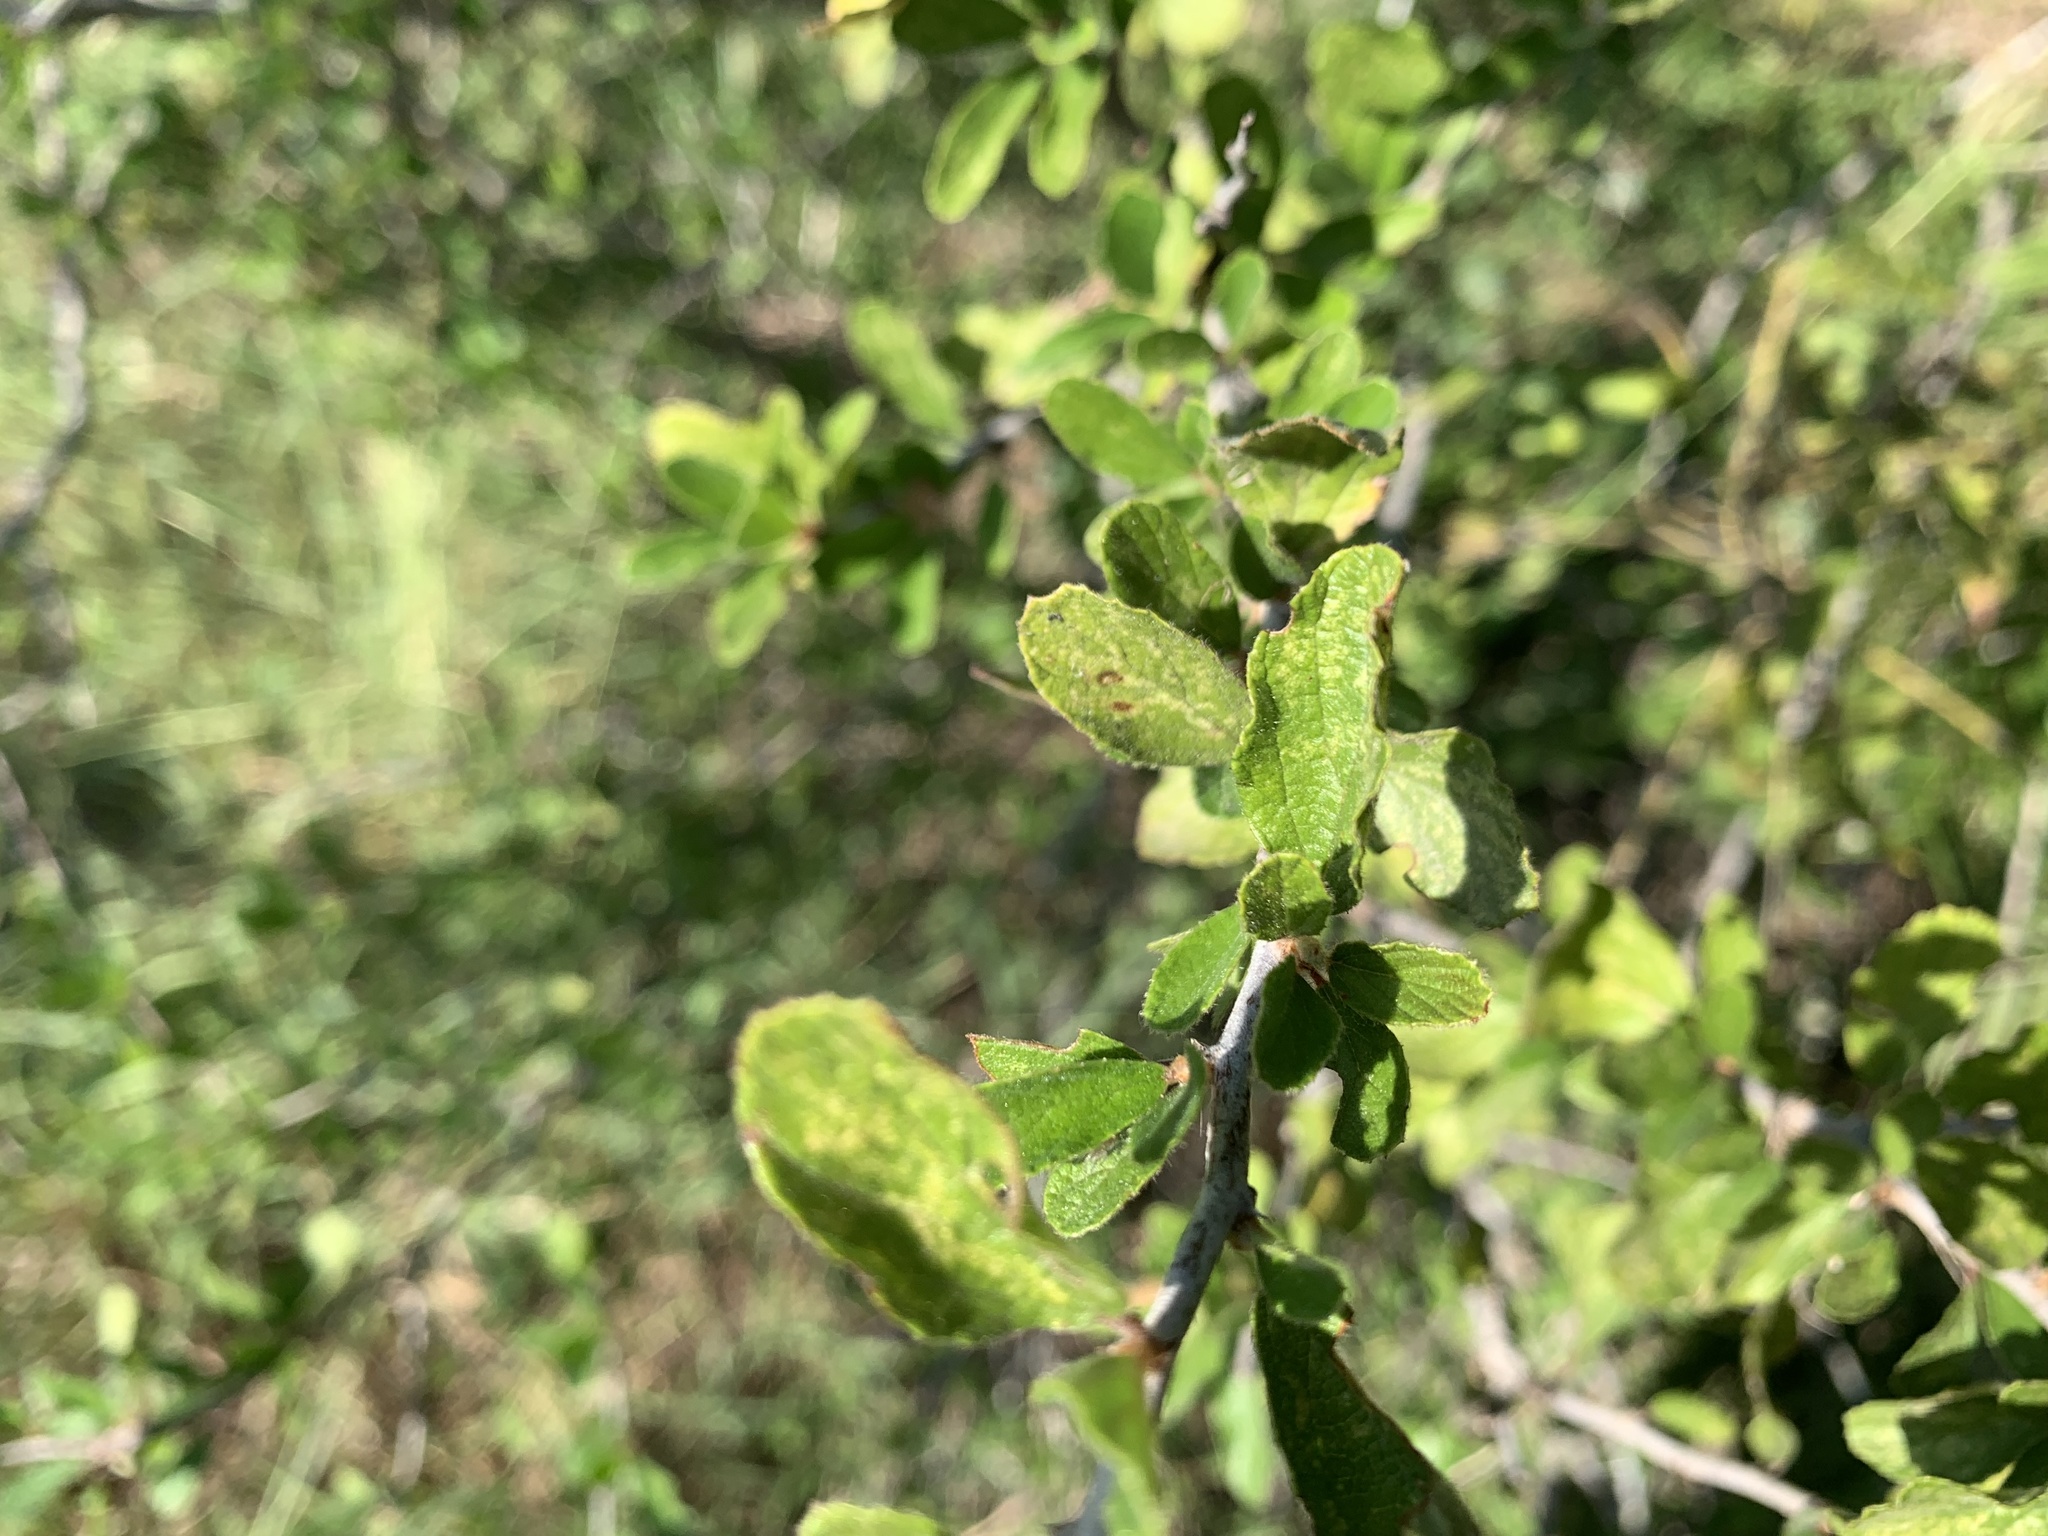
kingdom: Plantae
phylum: Tracheophyta
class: Magnoliopsida
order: Rosales
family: Rhamnaceae
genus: Colubrina
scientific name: Colubrina texensis
